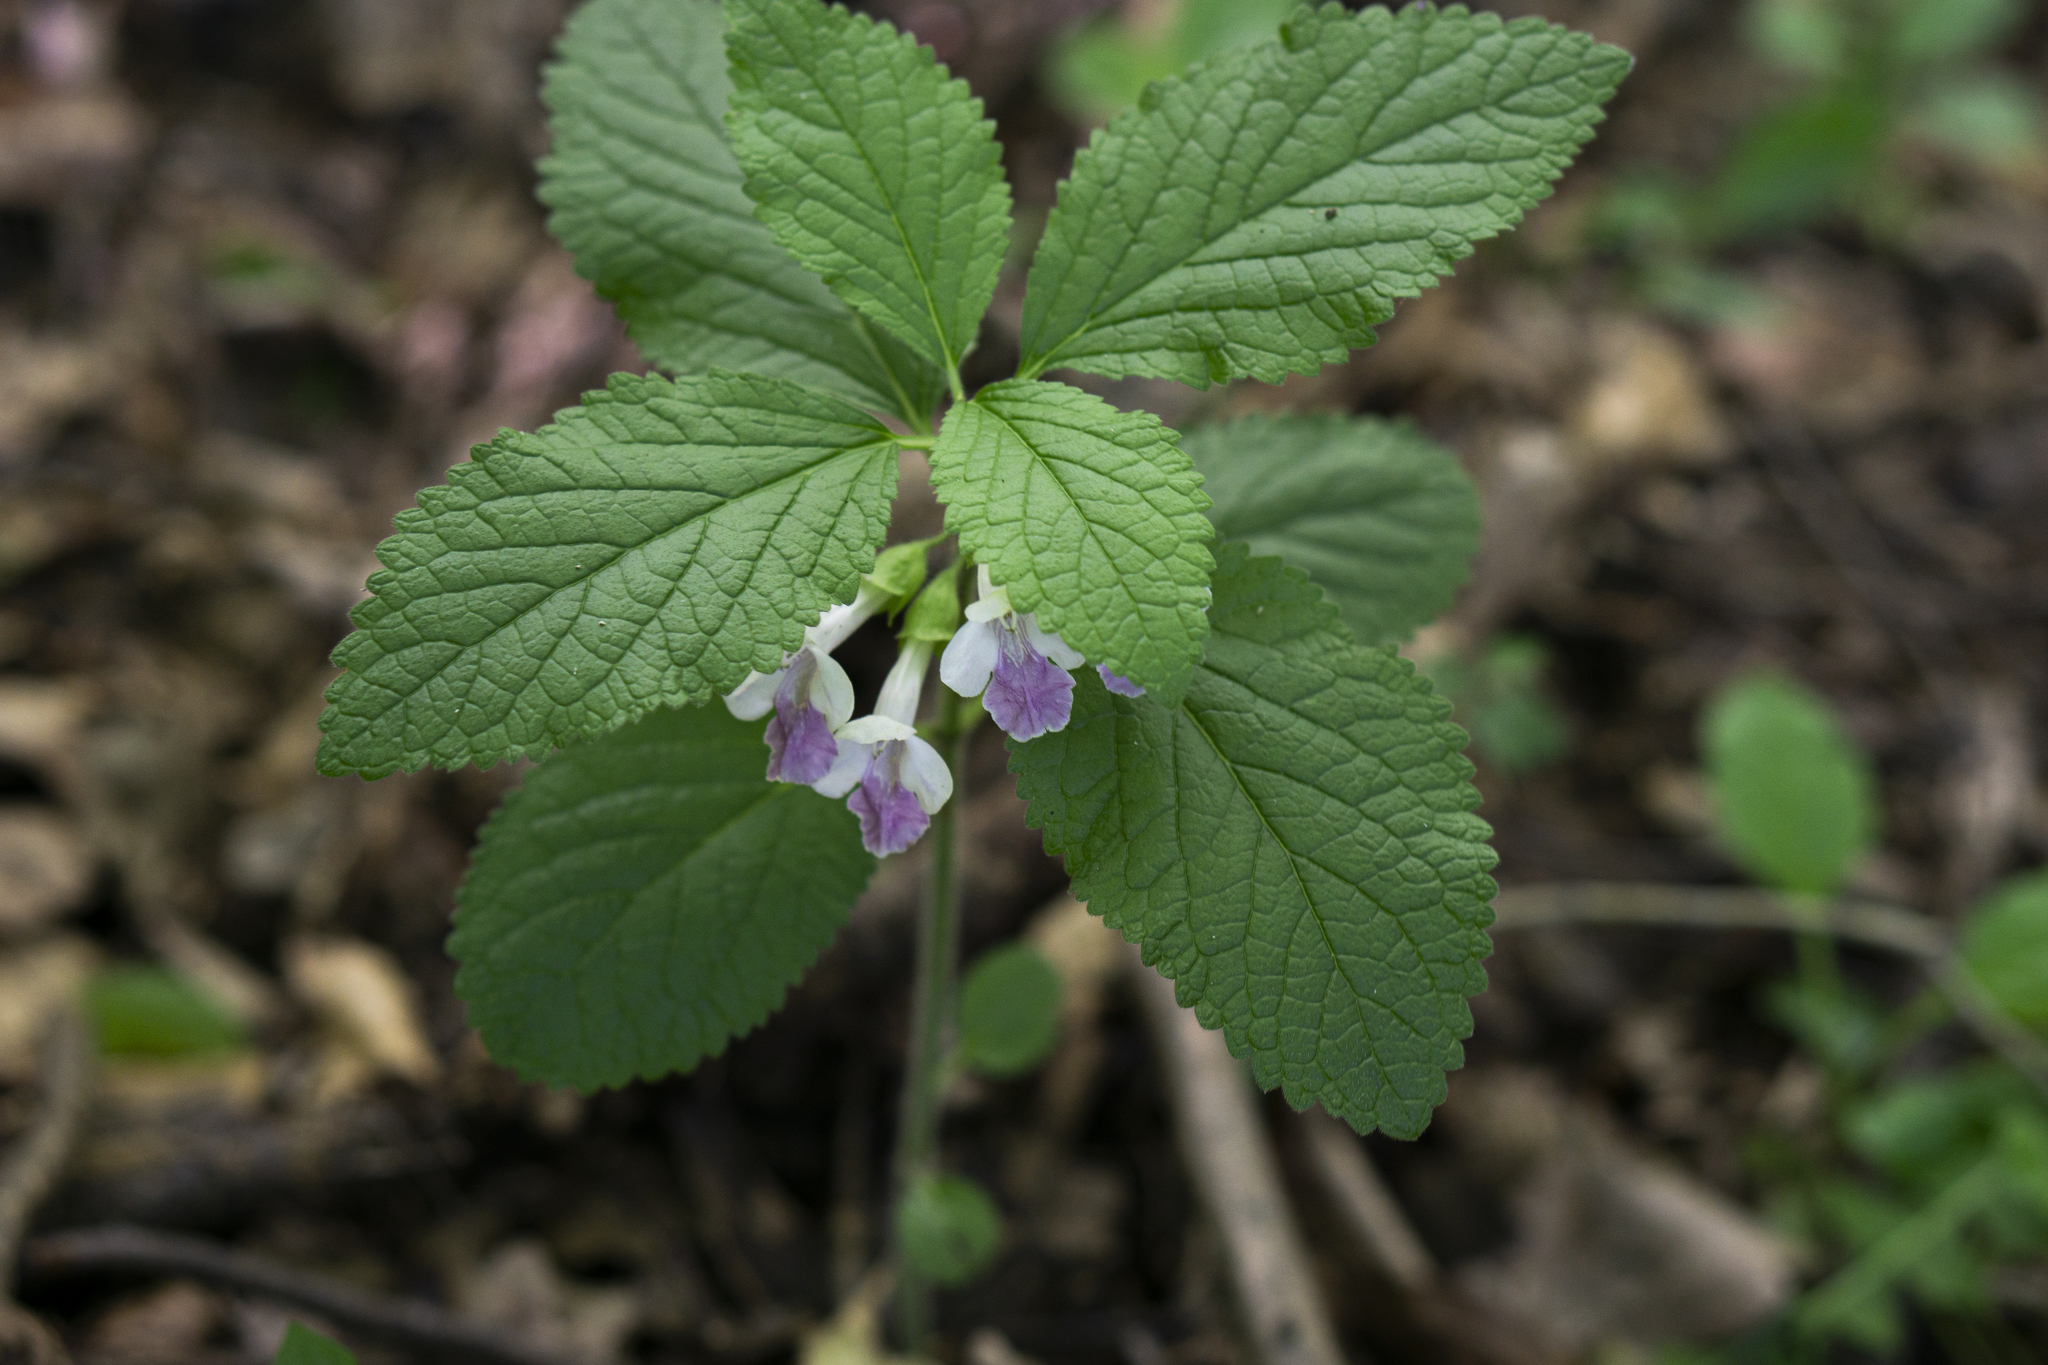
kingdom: Plantae
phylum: Tracheophyta
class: Magnoliopsida
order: Lamiales
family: Lamiaceae
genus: Melittis
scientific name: Melittis melissophyllum
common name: Bastard balm
